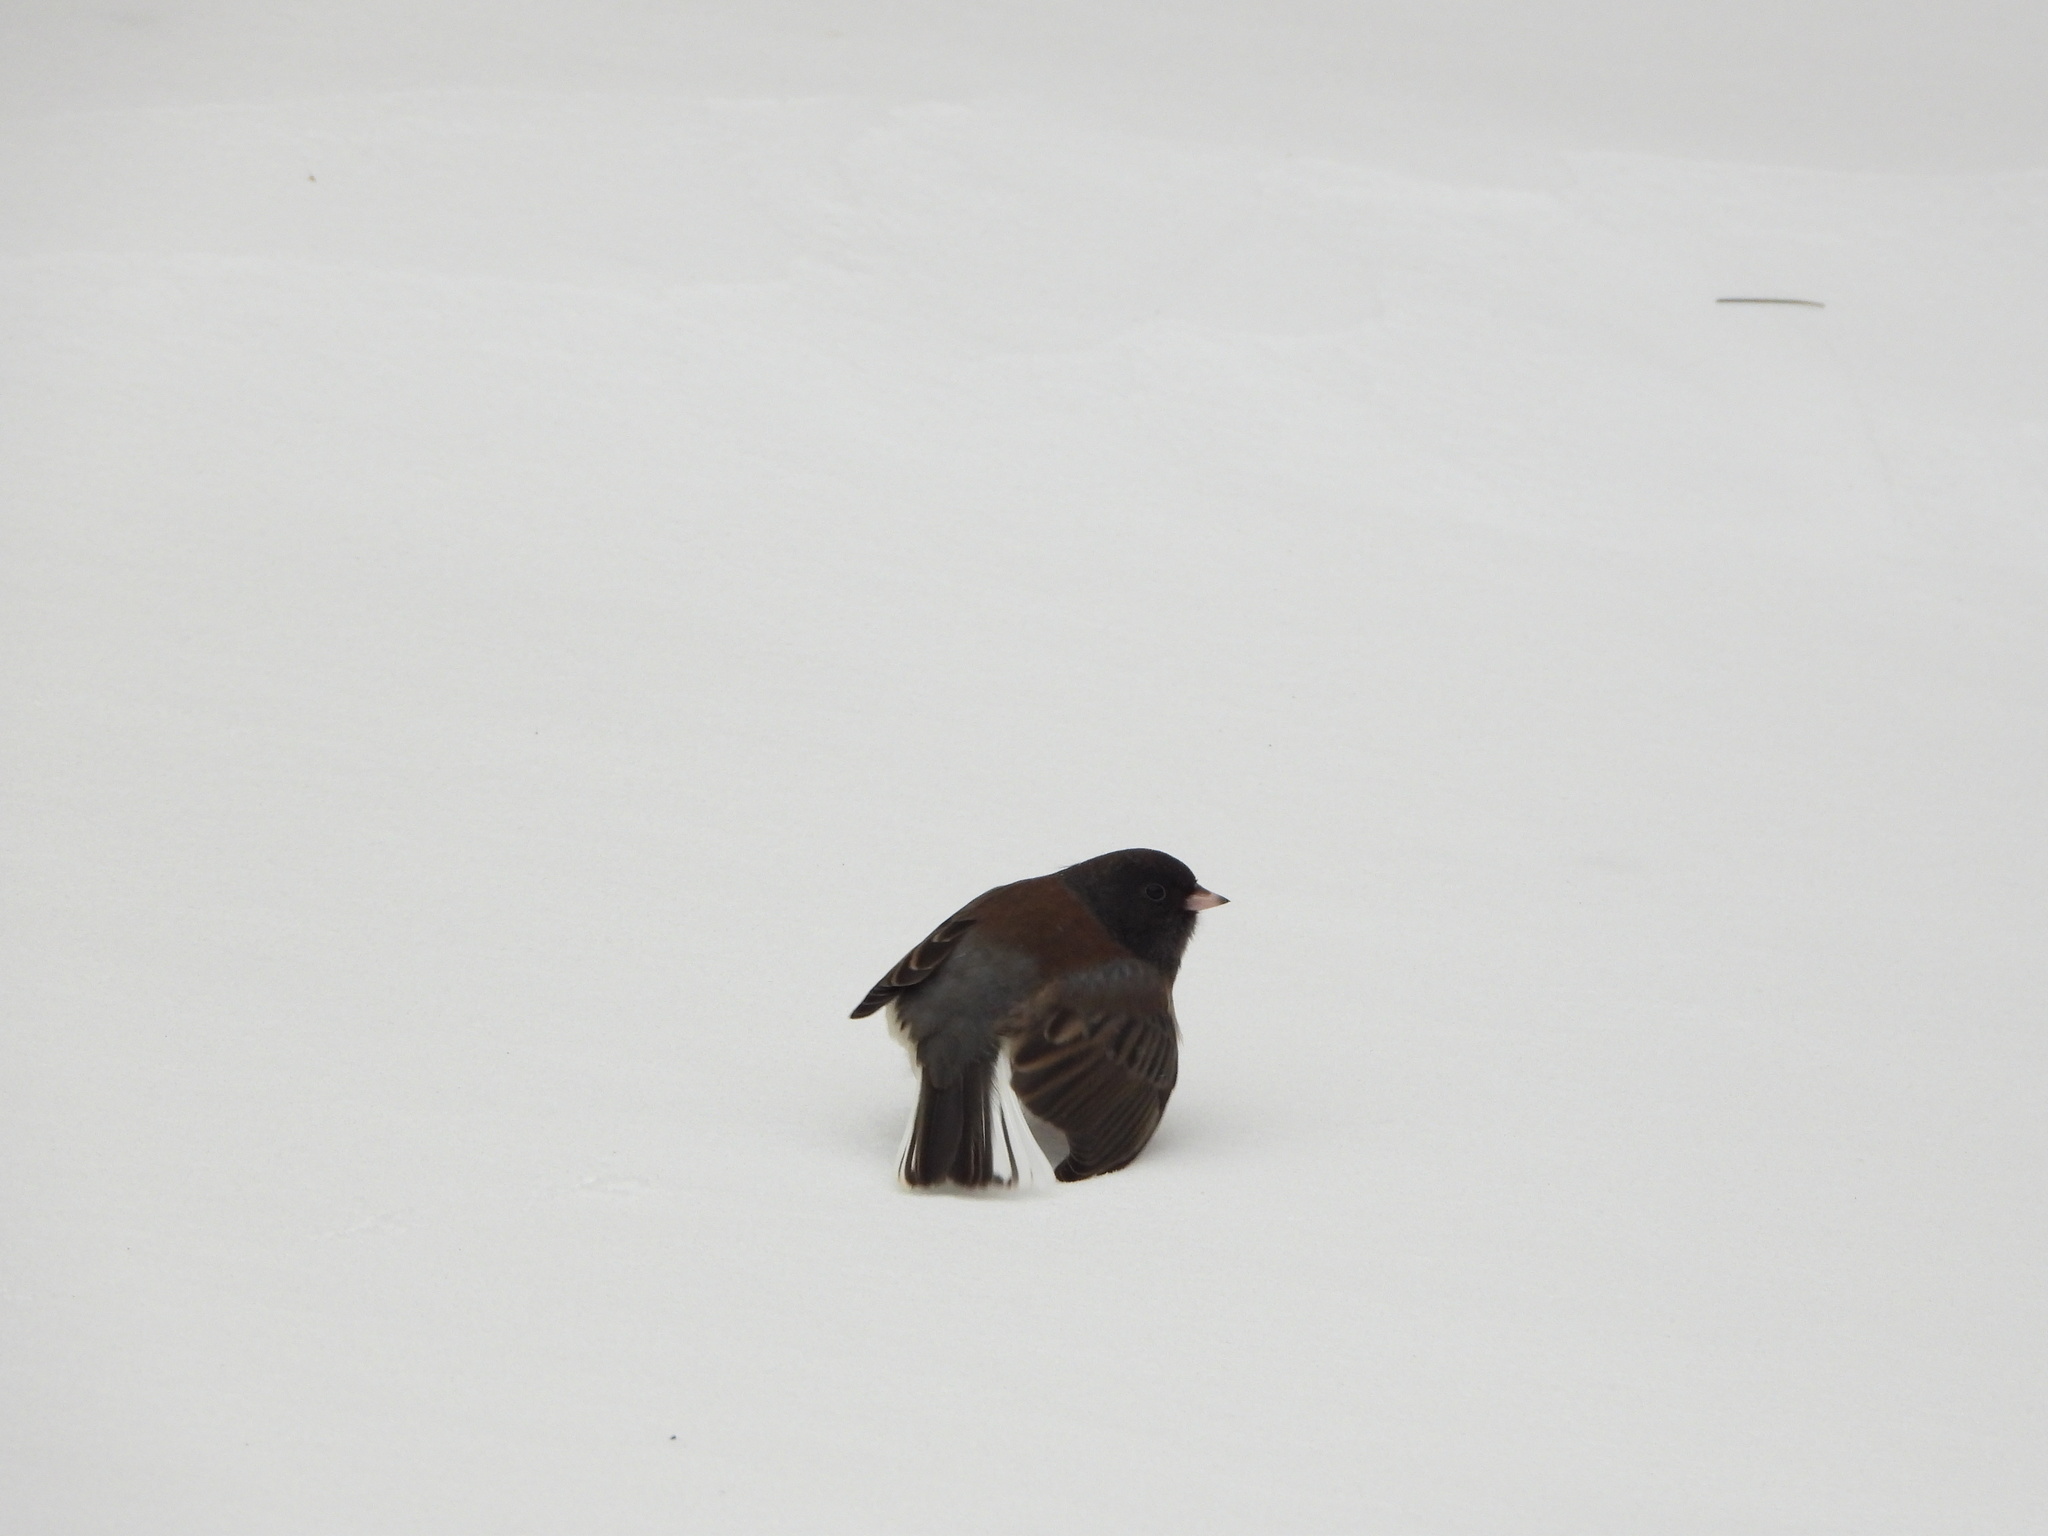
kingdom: Animalia
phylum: Chordata
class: Aves
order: Passeriformes
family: Passerellidae
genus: Junco
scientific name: Junco hyemalis
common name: Dark-eyed junco
